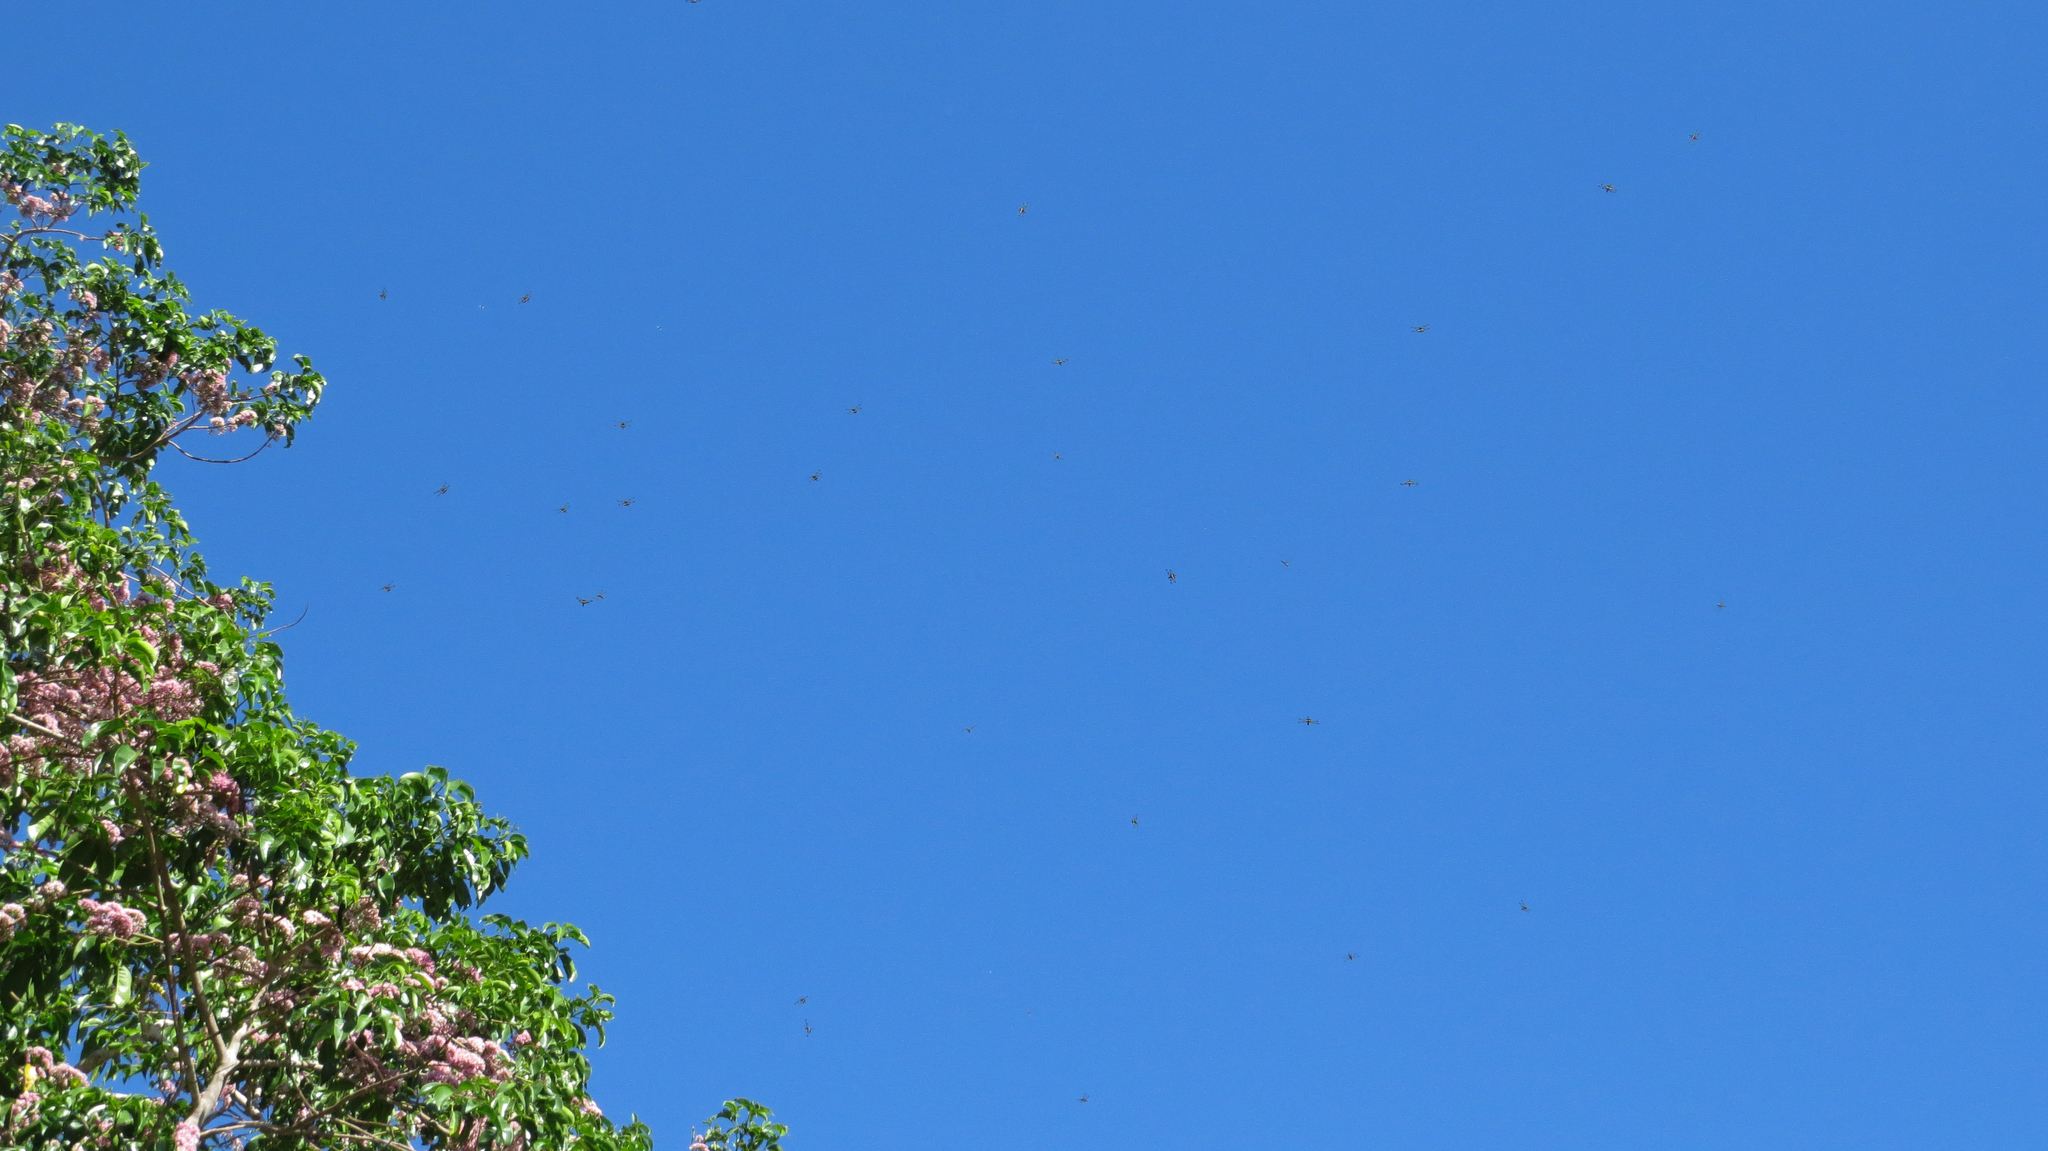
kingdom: Animalia
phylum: Arthropoda
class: Insecta
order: Odonata
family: Libellulidae
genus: Rhyothemis
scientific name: Rhyothemis phyllis
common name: Yellow-barred flutterer
